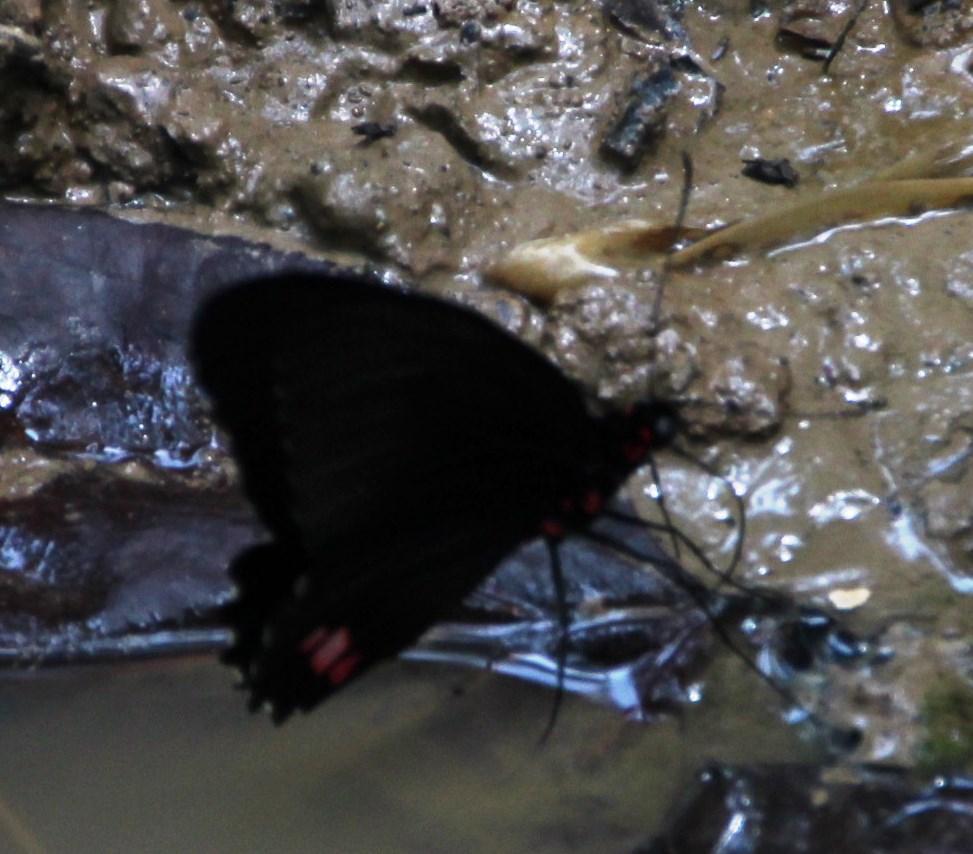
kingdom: Animalia
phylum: Arthropoda
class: Insecta
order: Lepidoptera
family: Papilionidae
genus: Parides
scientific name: Parides sesostris
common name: Southern cattle heart
